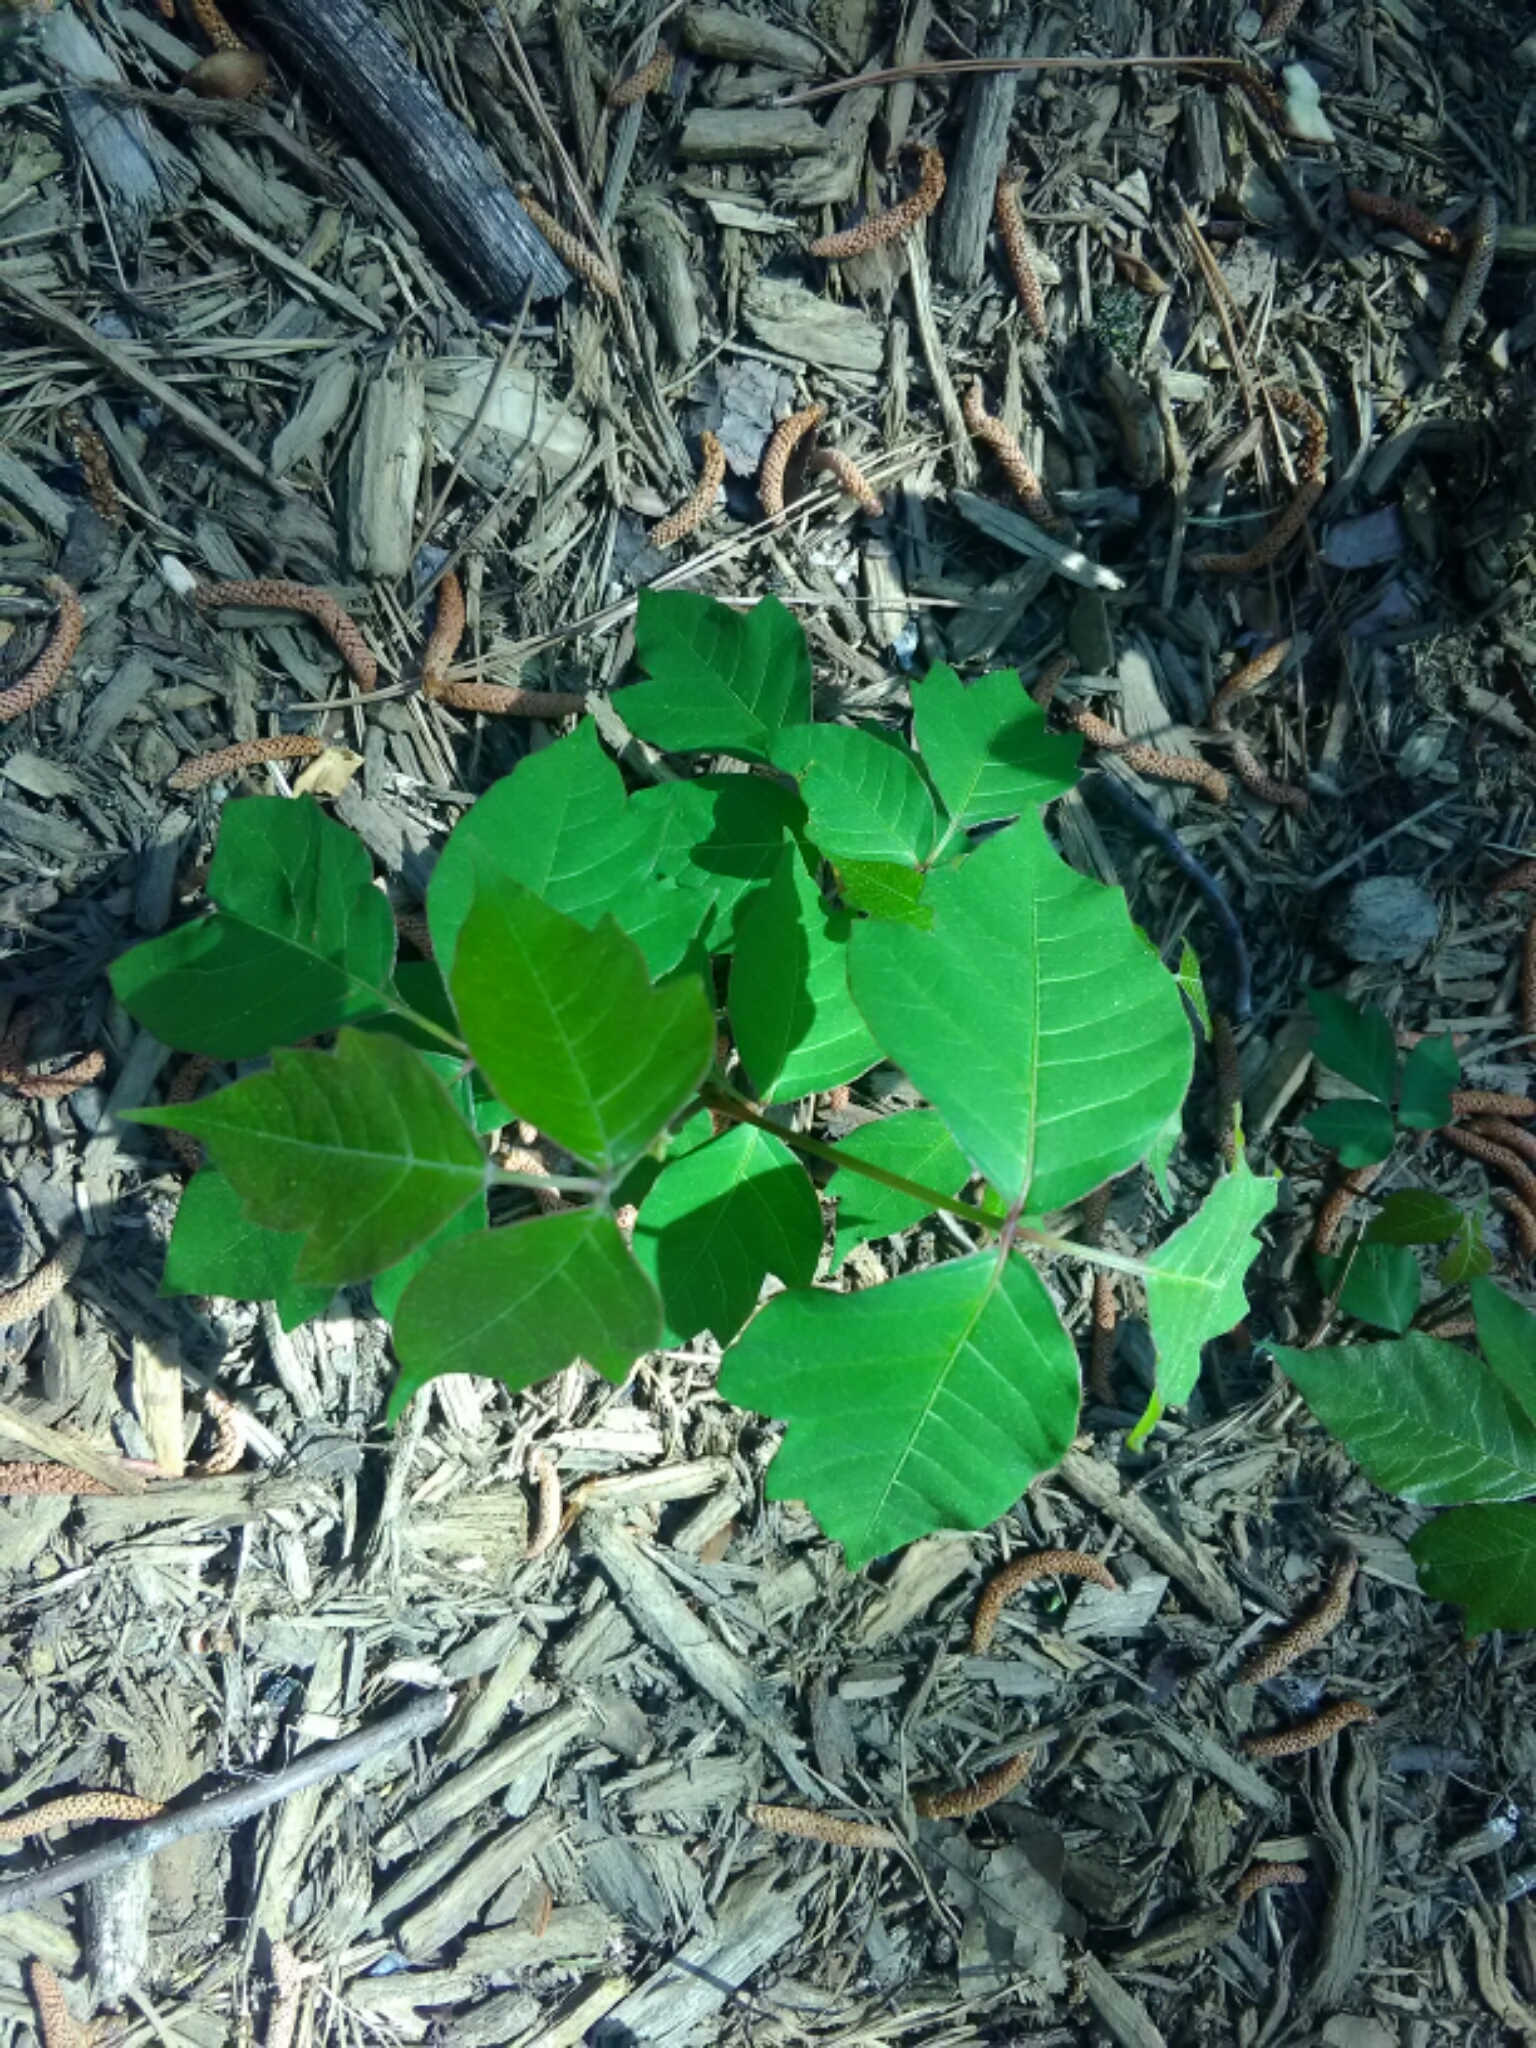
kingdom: Plantae
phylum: Tracheophyta
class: Magnoliopsida
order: Sapindales
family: Anacardiaceae
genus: Toxicodendron
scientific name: Toxicodendron radicans
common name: Poison ivy
